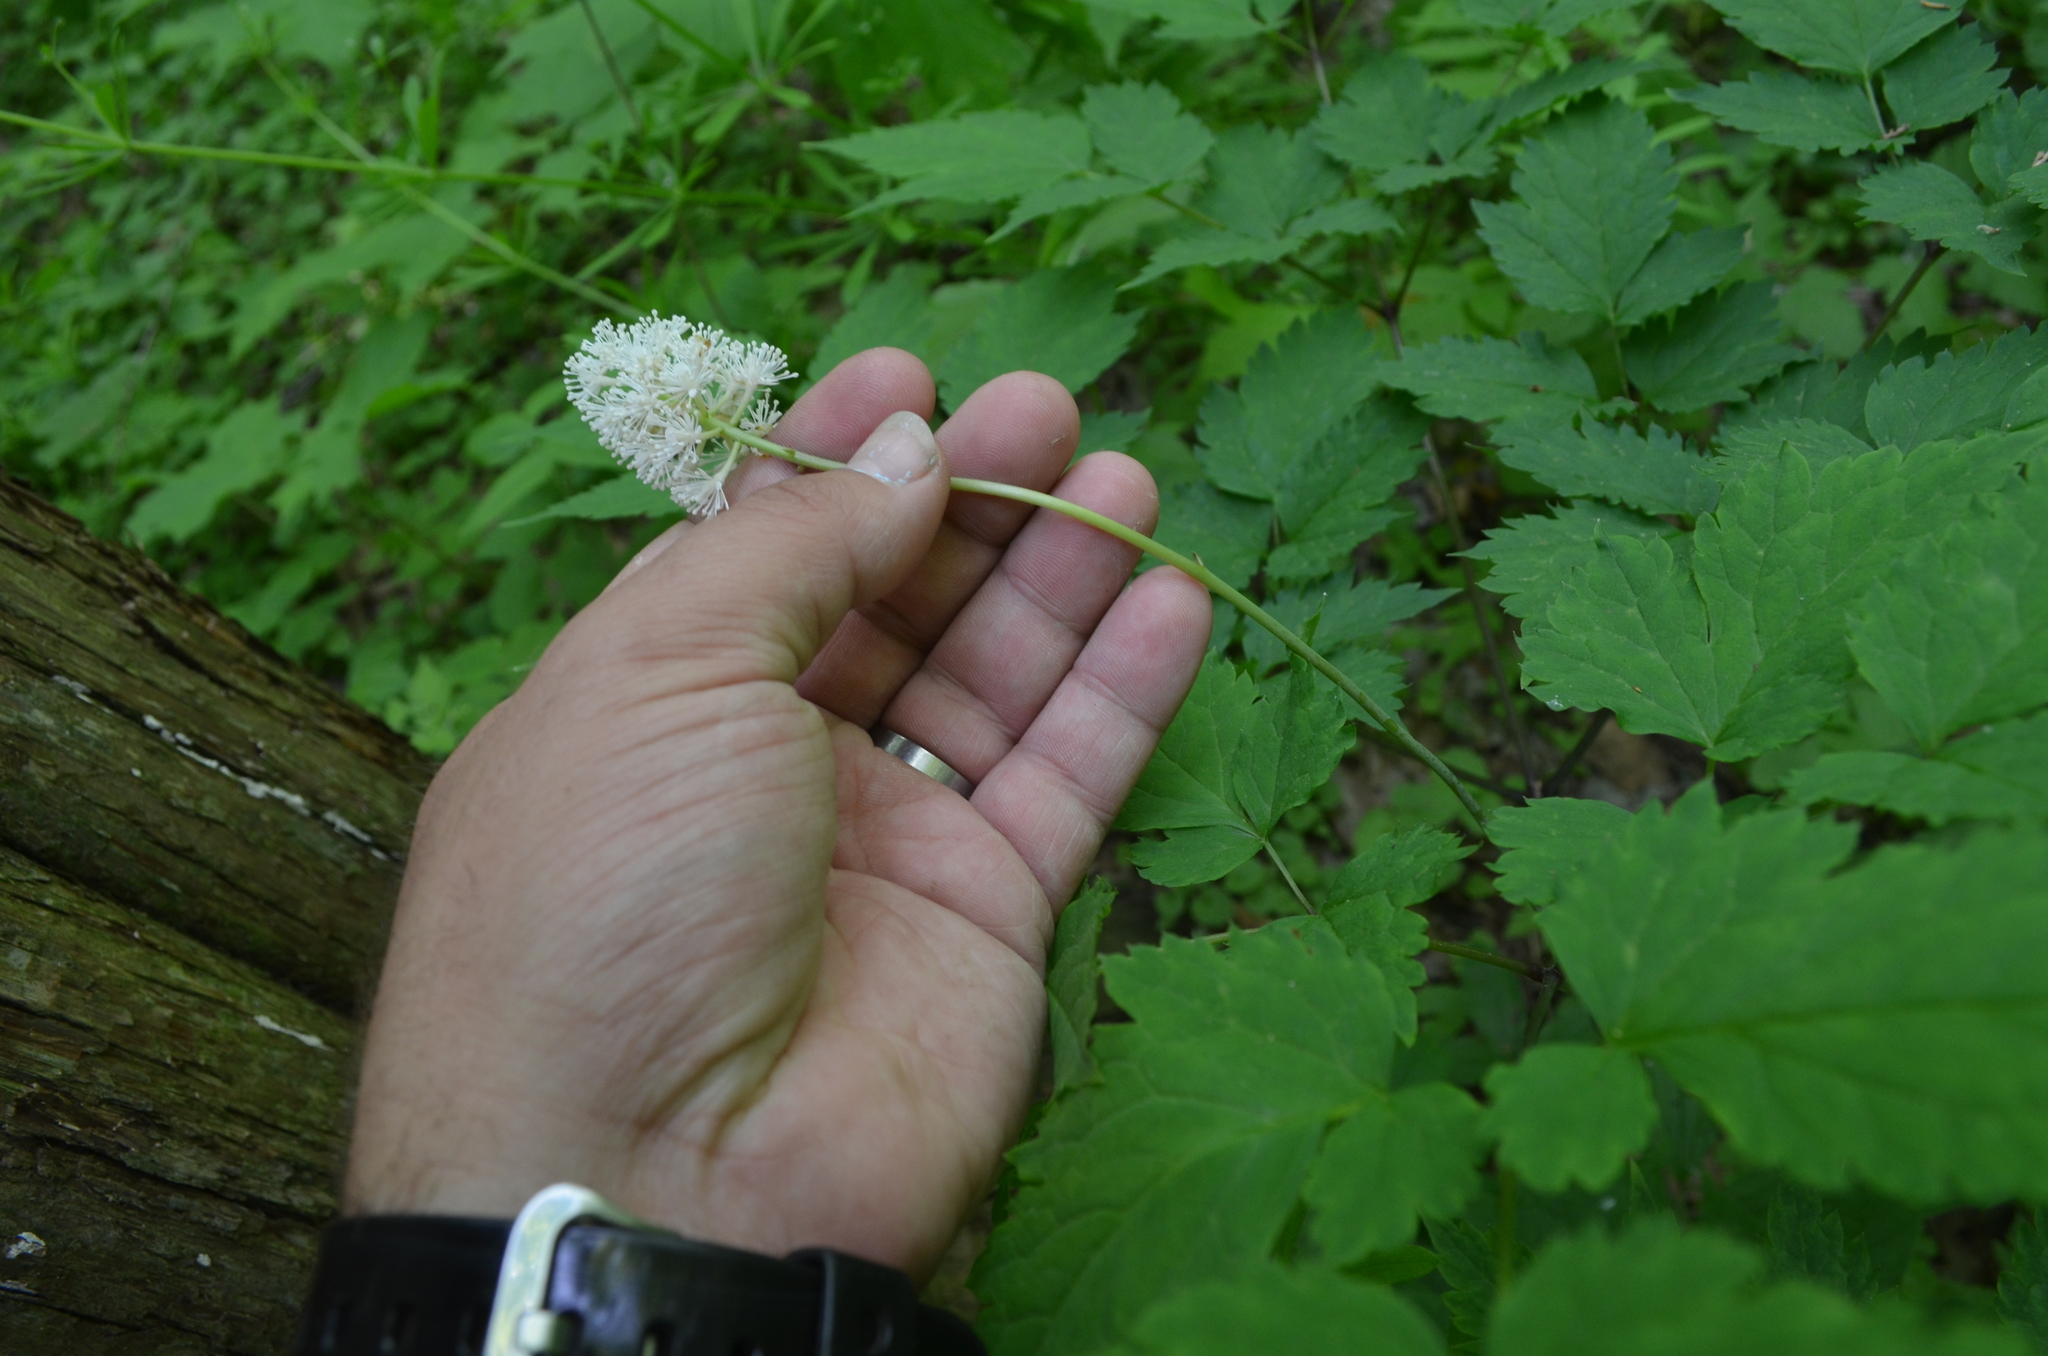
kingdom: Plantae
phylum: Tracheophyta
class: Magnoliopsida
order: Ranunculales
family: Ranunculaceae
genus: Actaea
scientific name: Actaea pachypoda
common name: Doll's-eyes
